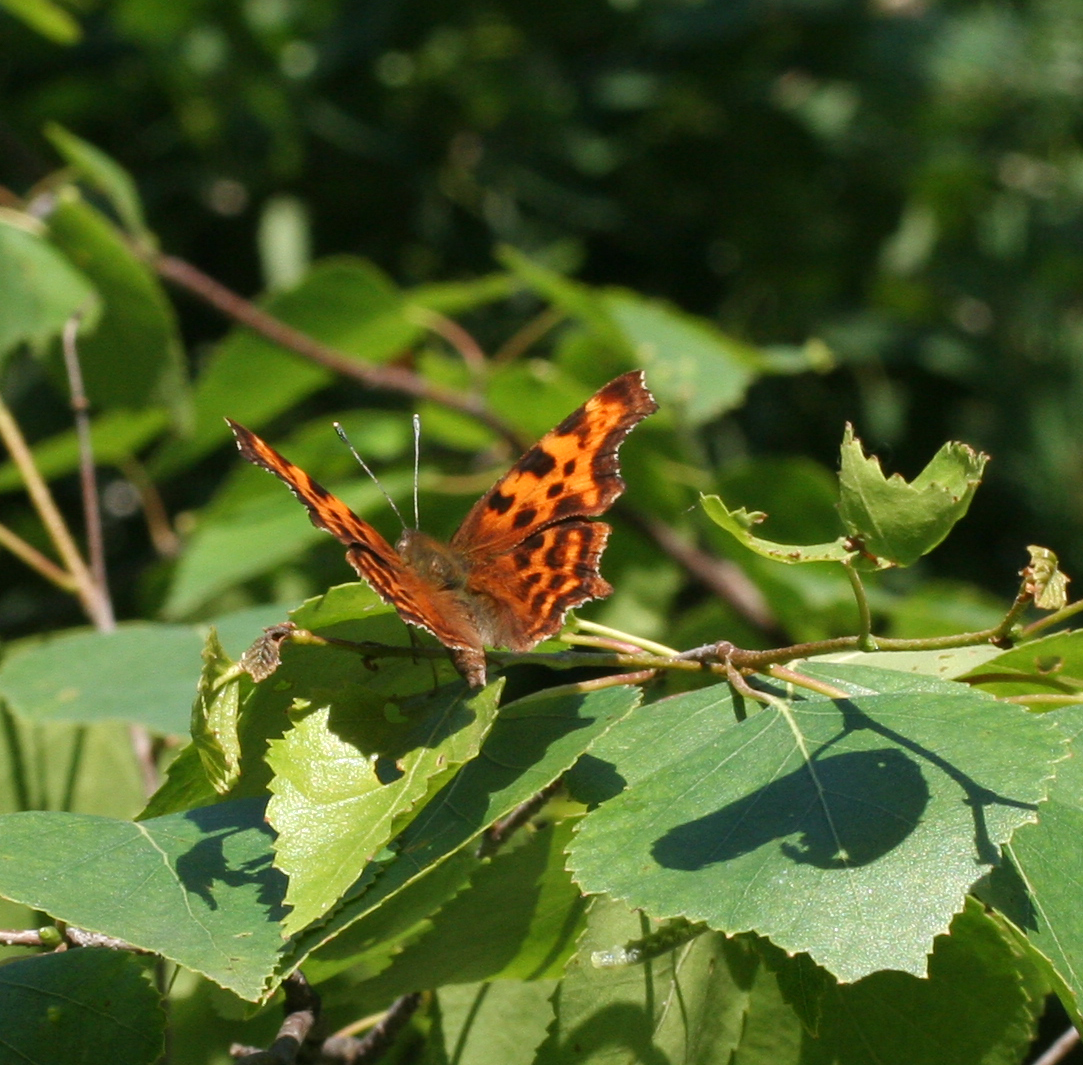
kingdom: Animalia
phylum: Arthropoda
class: Insecta
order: Lepidoptera
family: Nymphalidae
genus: Polygonia
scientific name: Polygonia c-album
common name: Comma
